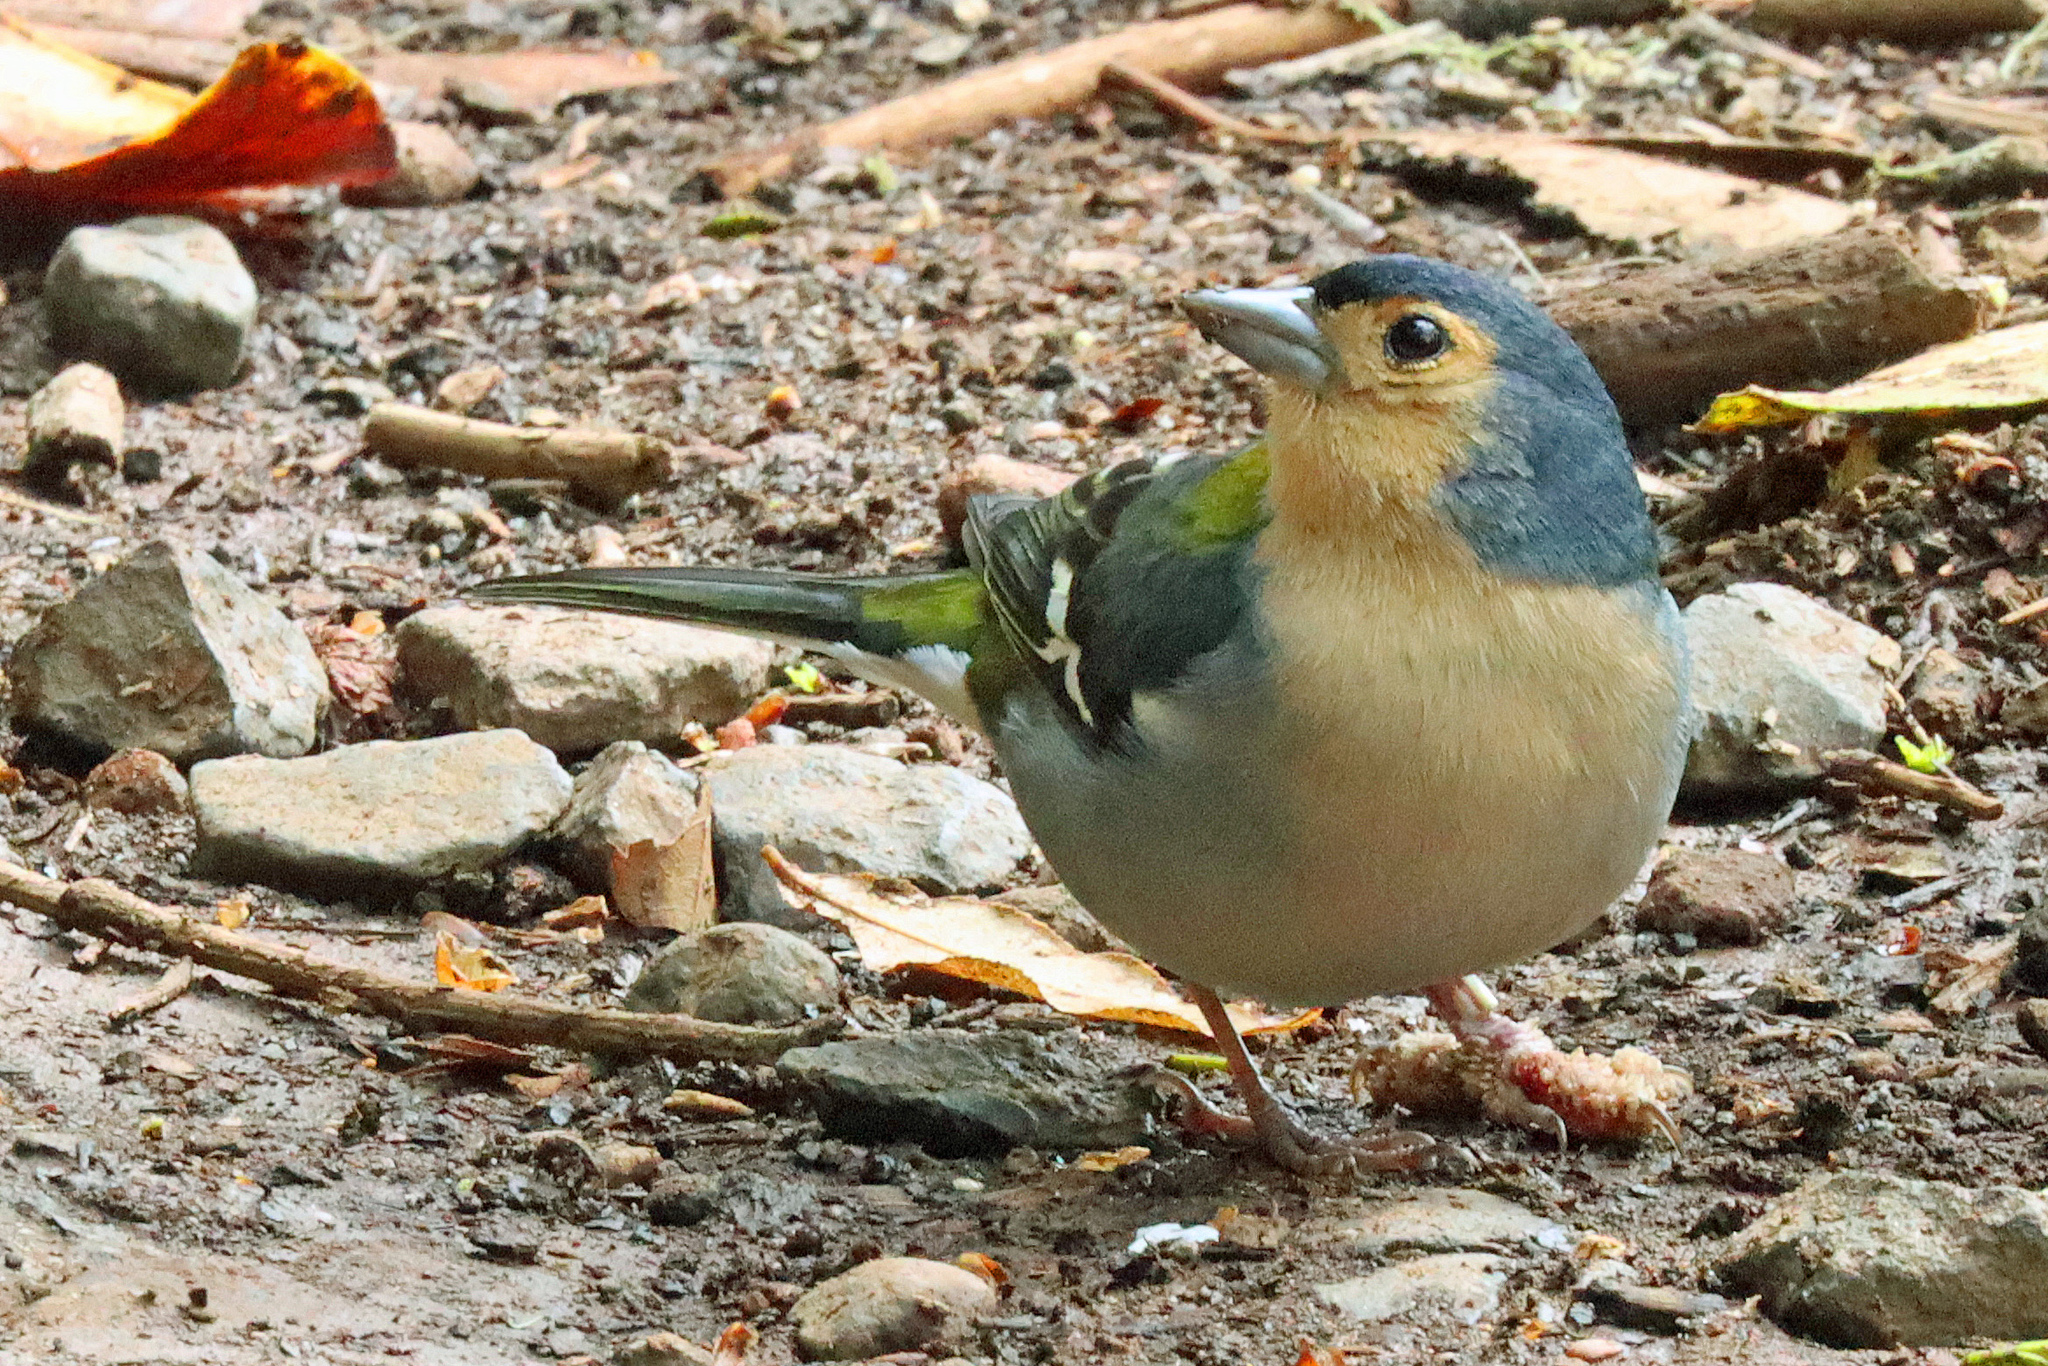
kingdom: Animalia
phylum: Chordata
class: Aves
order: Passeriformes
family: Fringillidae
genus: Fringilla
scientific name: Fringilla maderensis
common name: Madeira chaffinch
